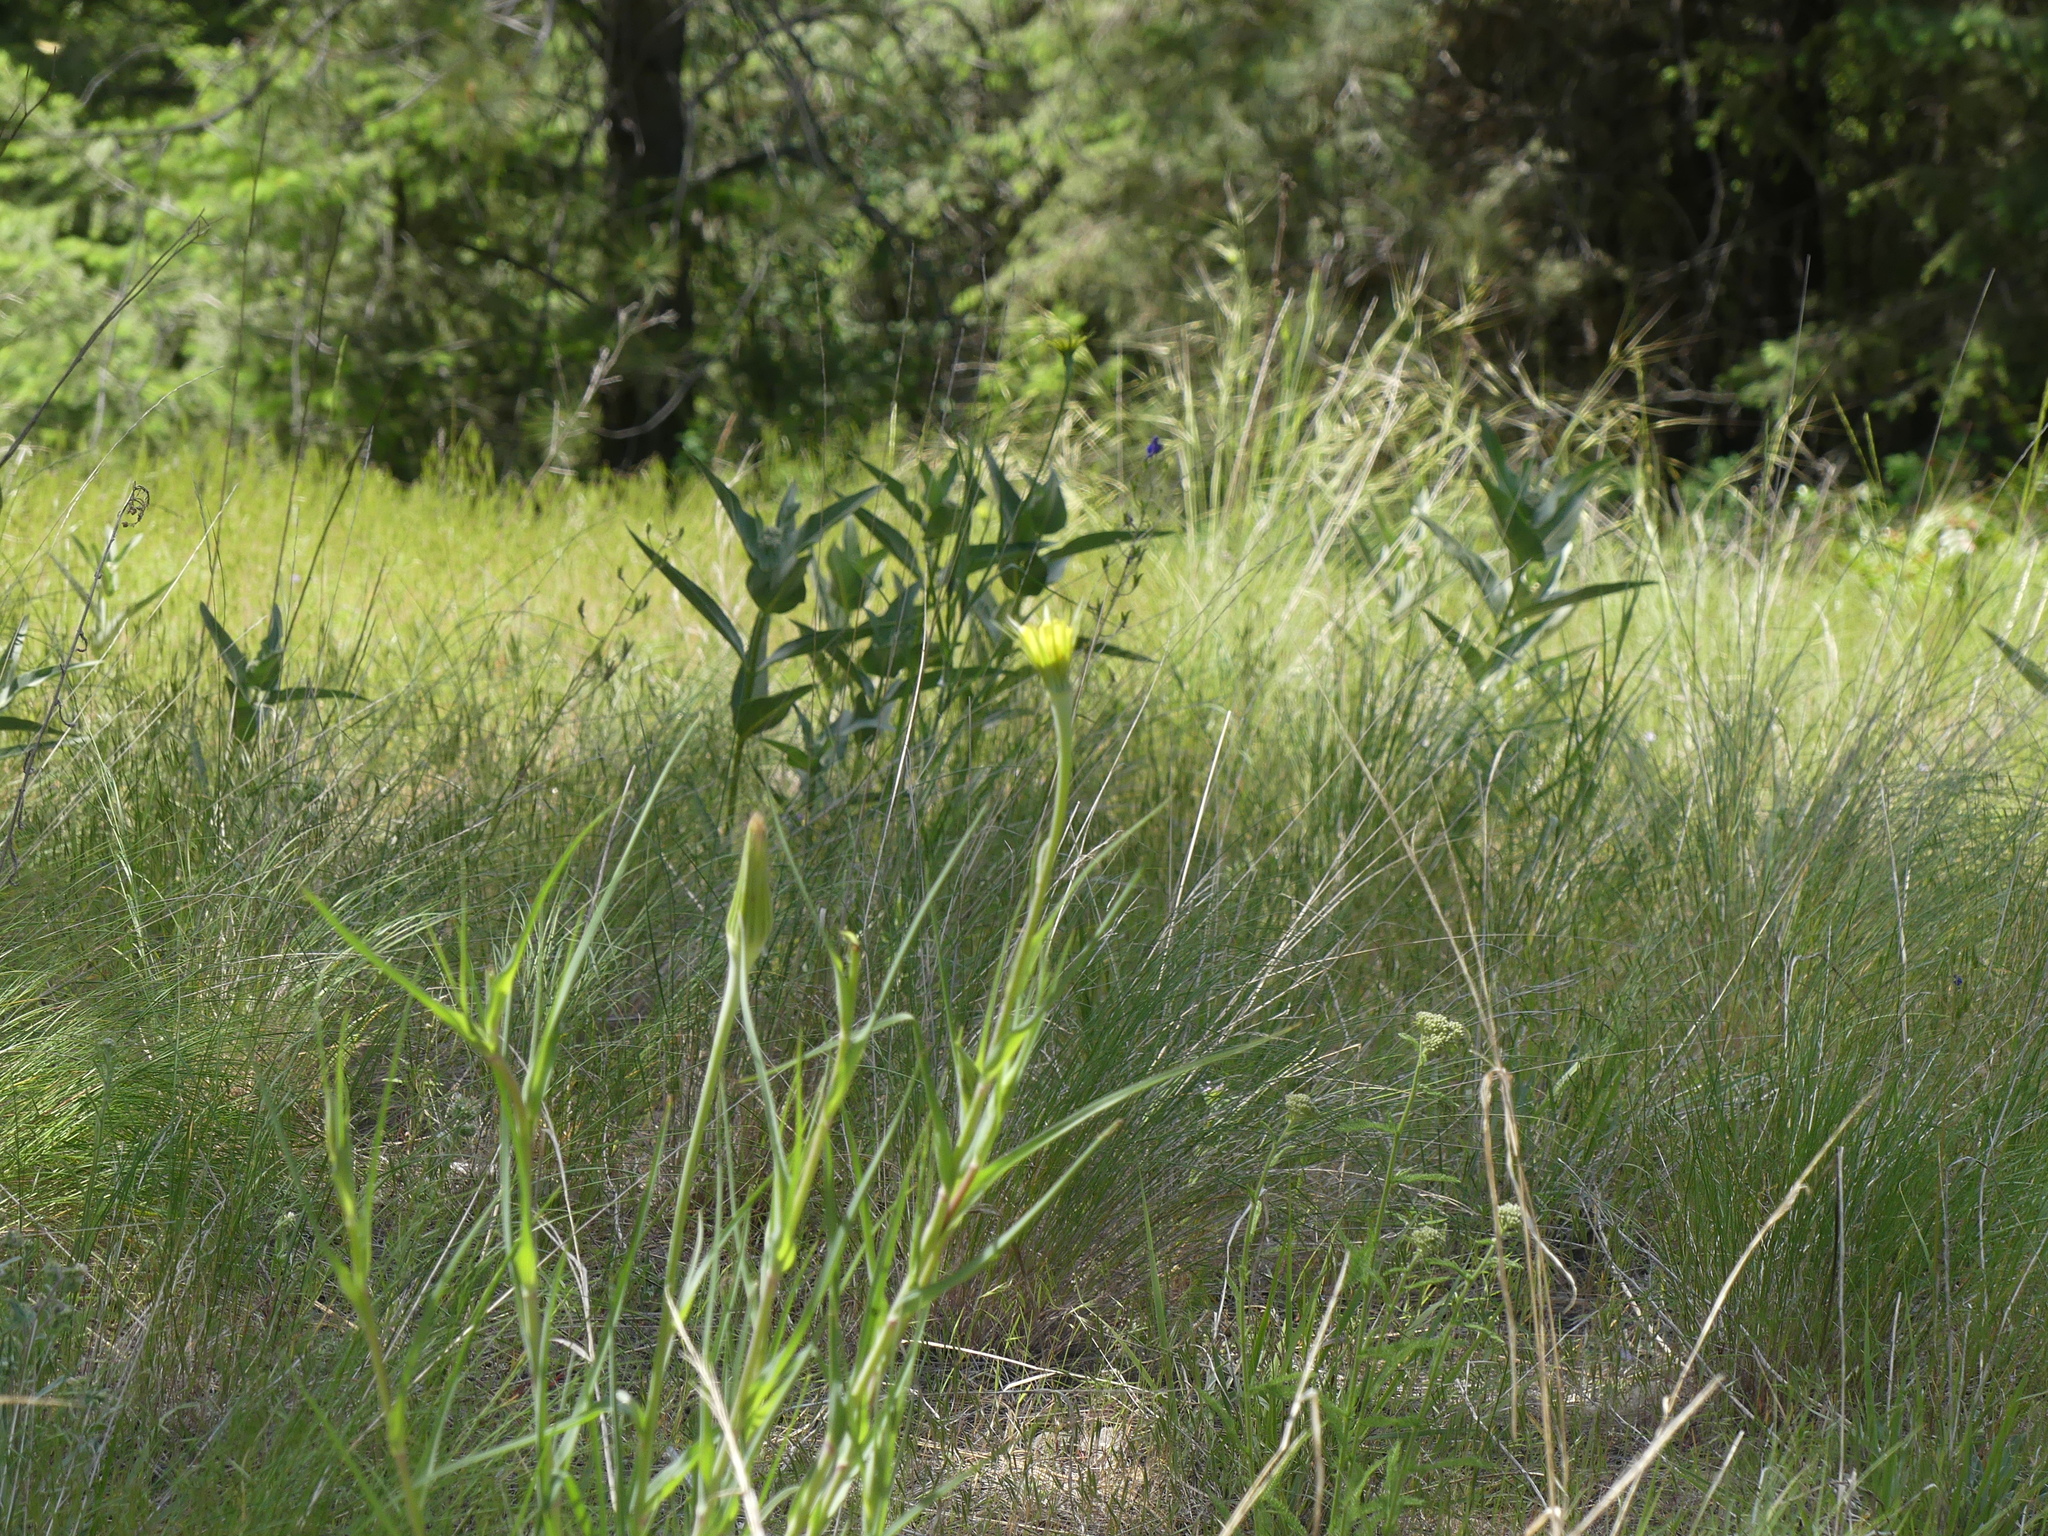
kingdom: Plantae
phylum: Tracheophyta
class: Magnoliopsida
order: Asterales
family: Asteraceae
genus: Tragopogon
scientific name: Tragopogon dubius
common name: Yellow salsify
